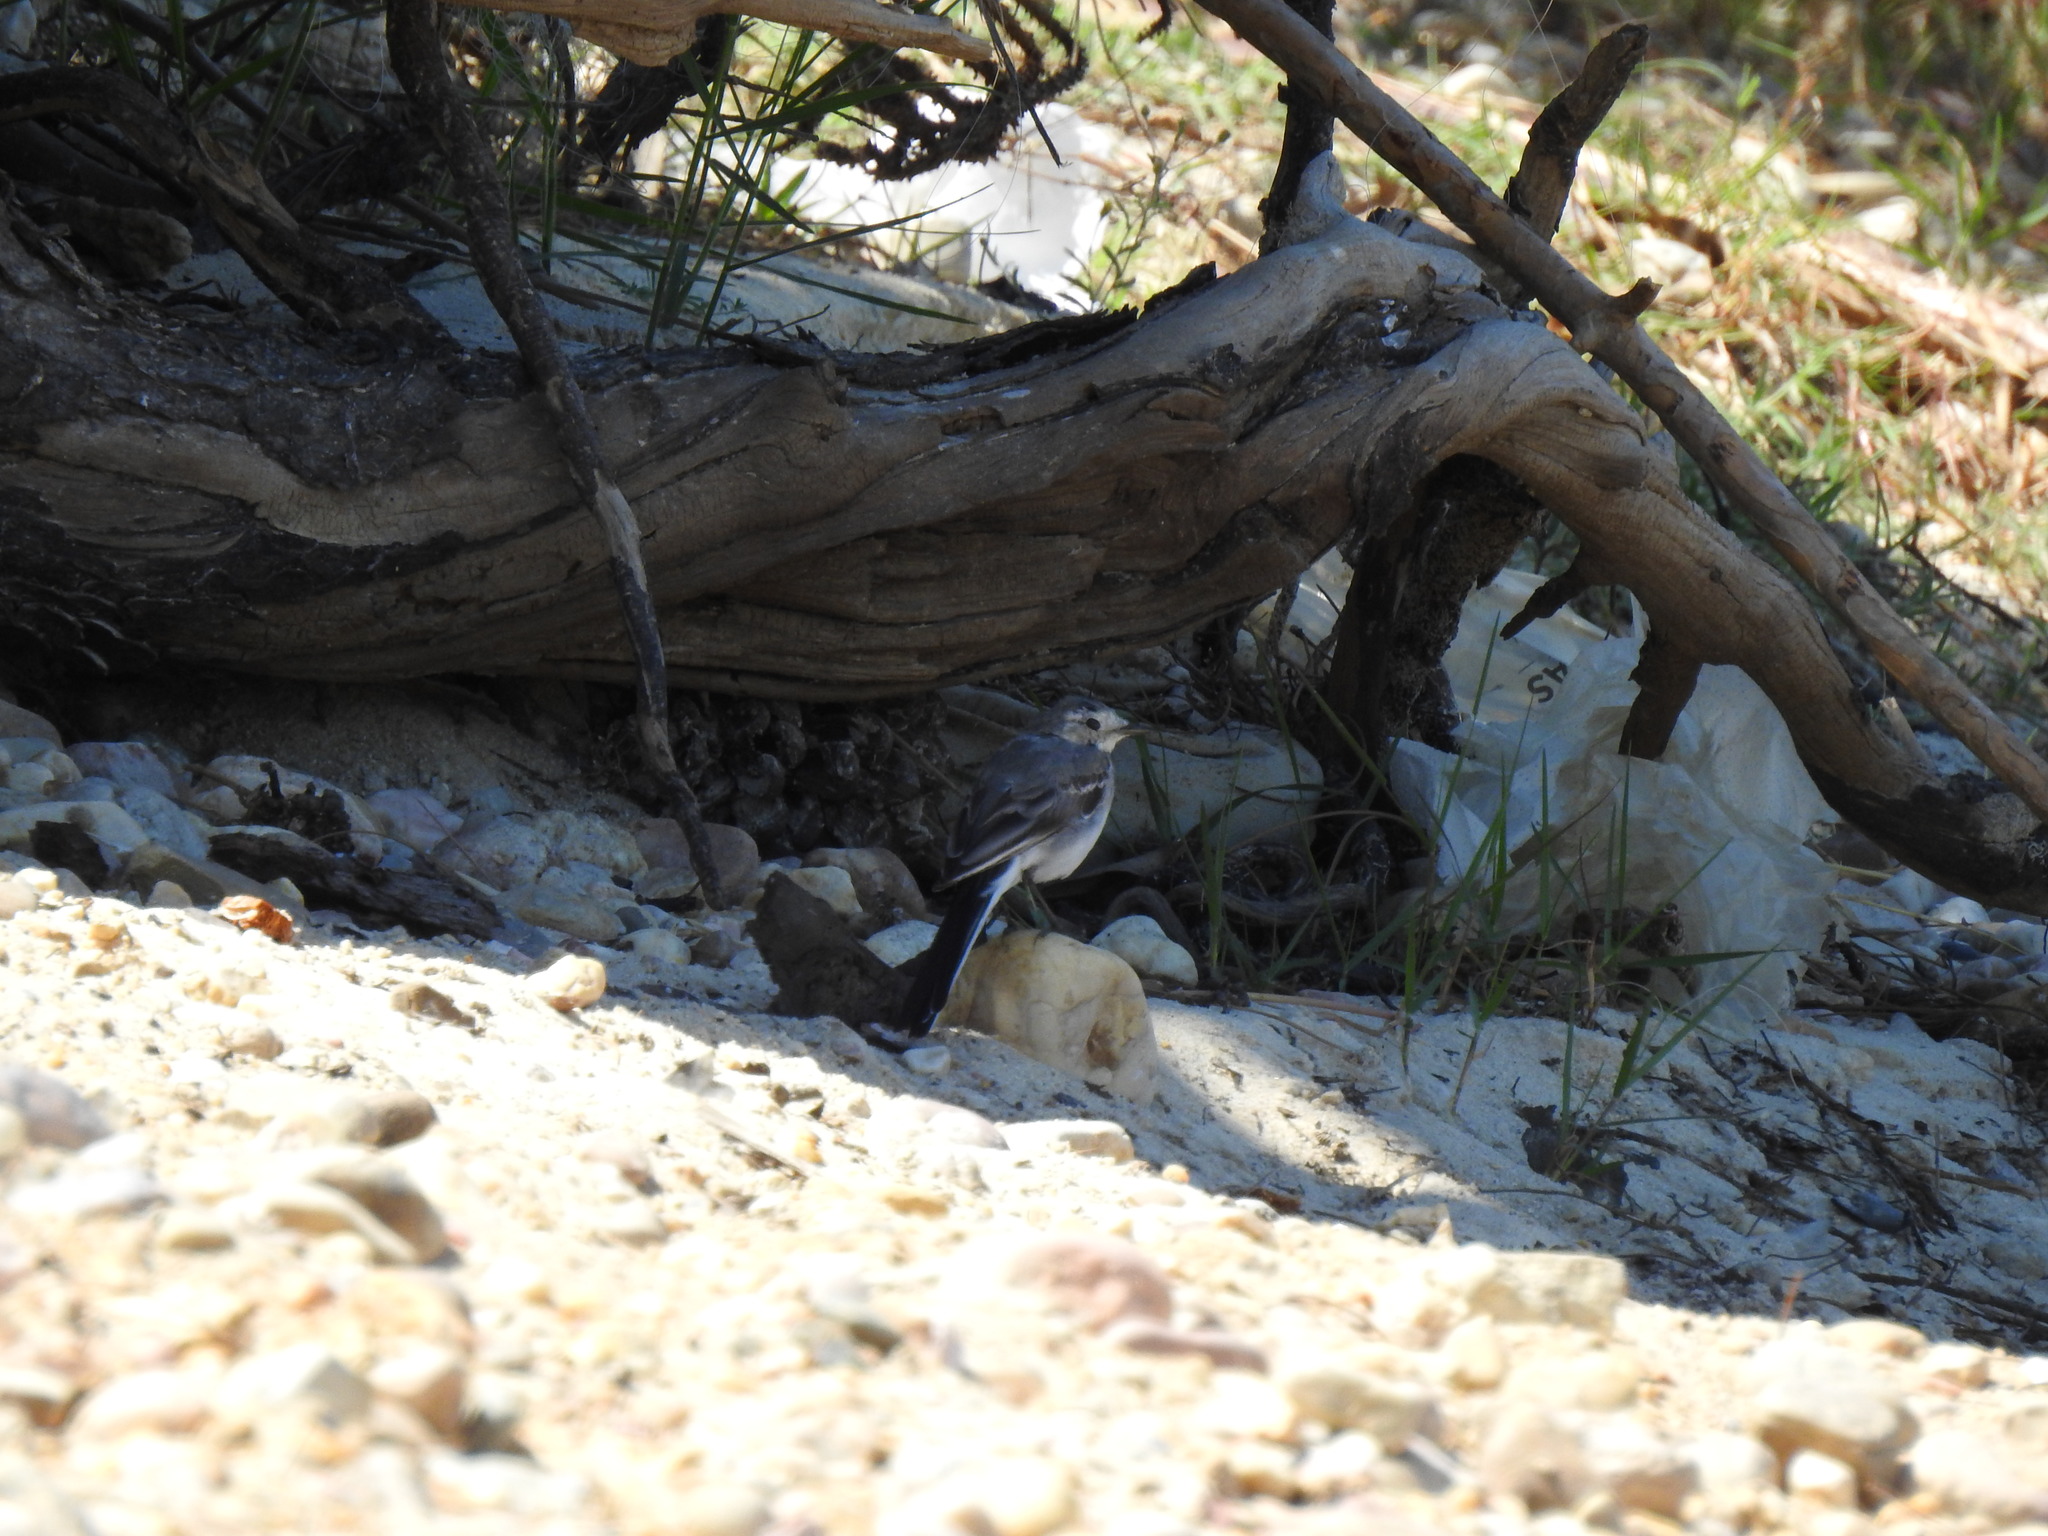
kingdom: Animalia
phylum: Chordata
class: Aves
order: Passeriformes
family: Motacillidae
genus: Motacilla
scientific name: Motacilla alba
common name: White wagtail
